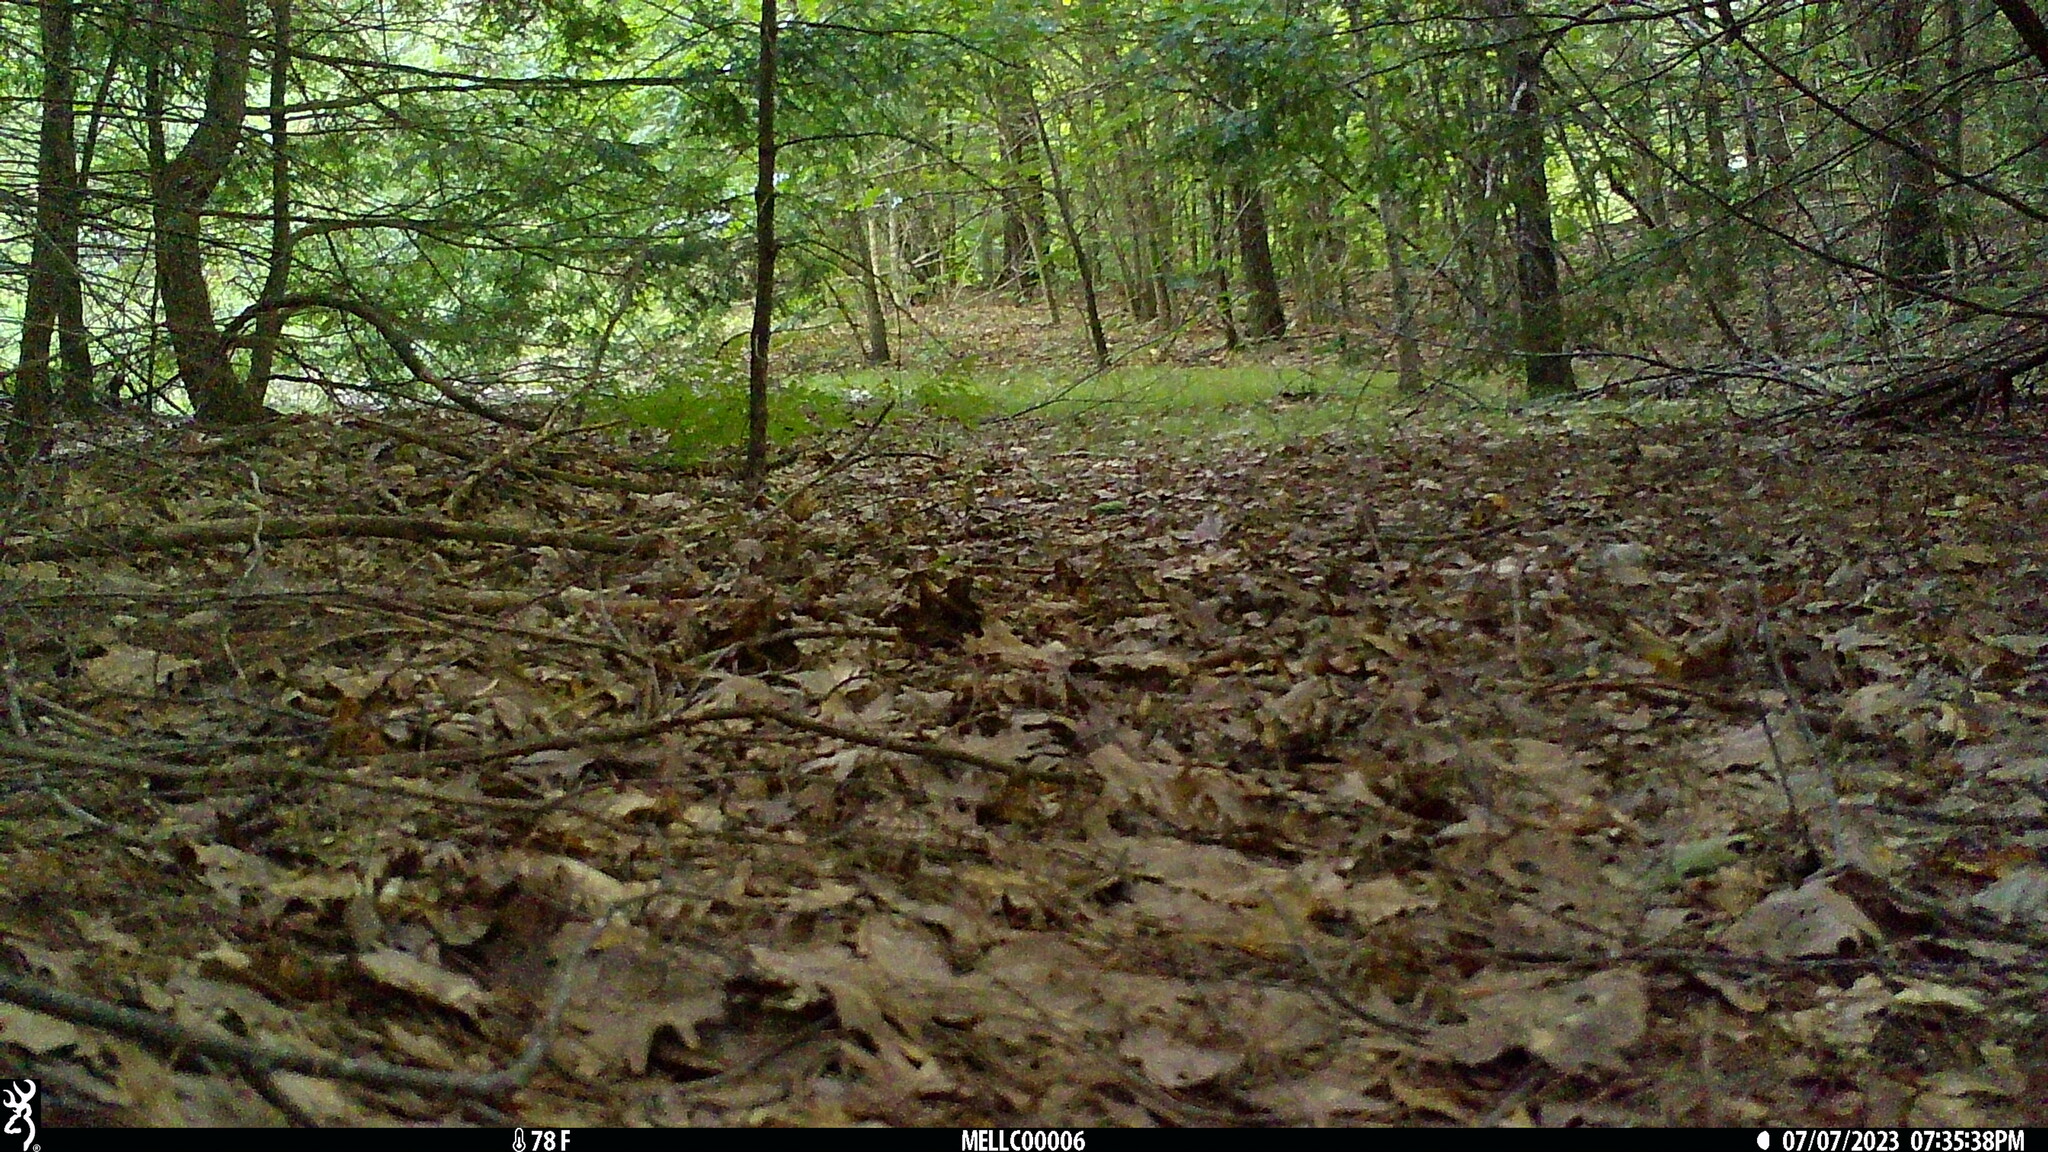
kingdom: Animalia
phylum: Chordata
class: Mammalia
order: Rodentia
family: Sciuridae
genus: Tamias
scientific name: Tamias striatus
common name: Eastern chipmunk
